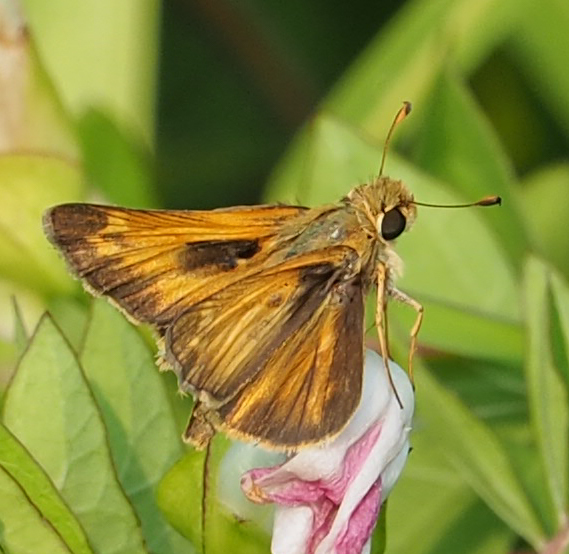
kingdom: Animalia
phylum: Arthropoda
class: Insecta
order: Lepidoptera
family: Hesperiidae
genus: Atalopedes
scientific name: Atalopedes
